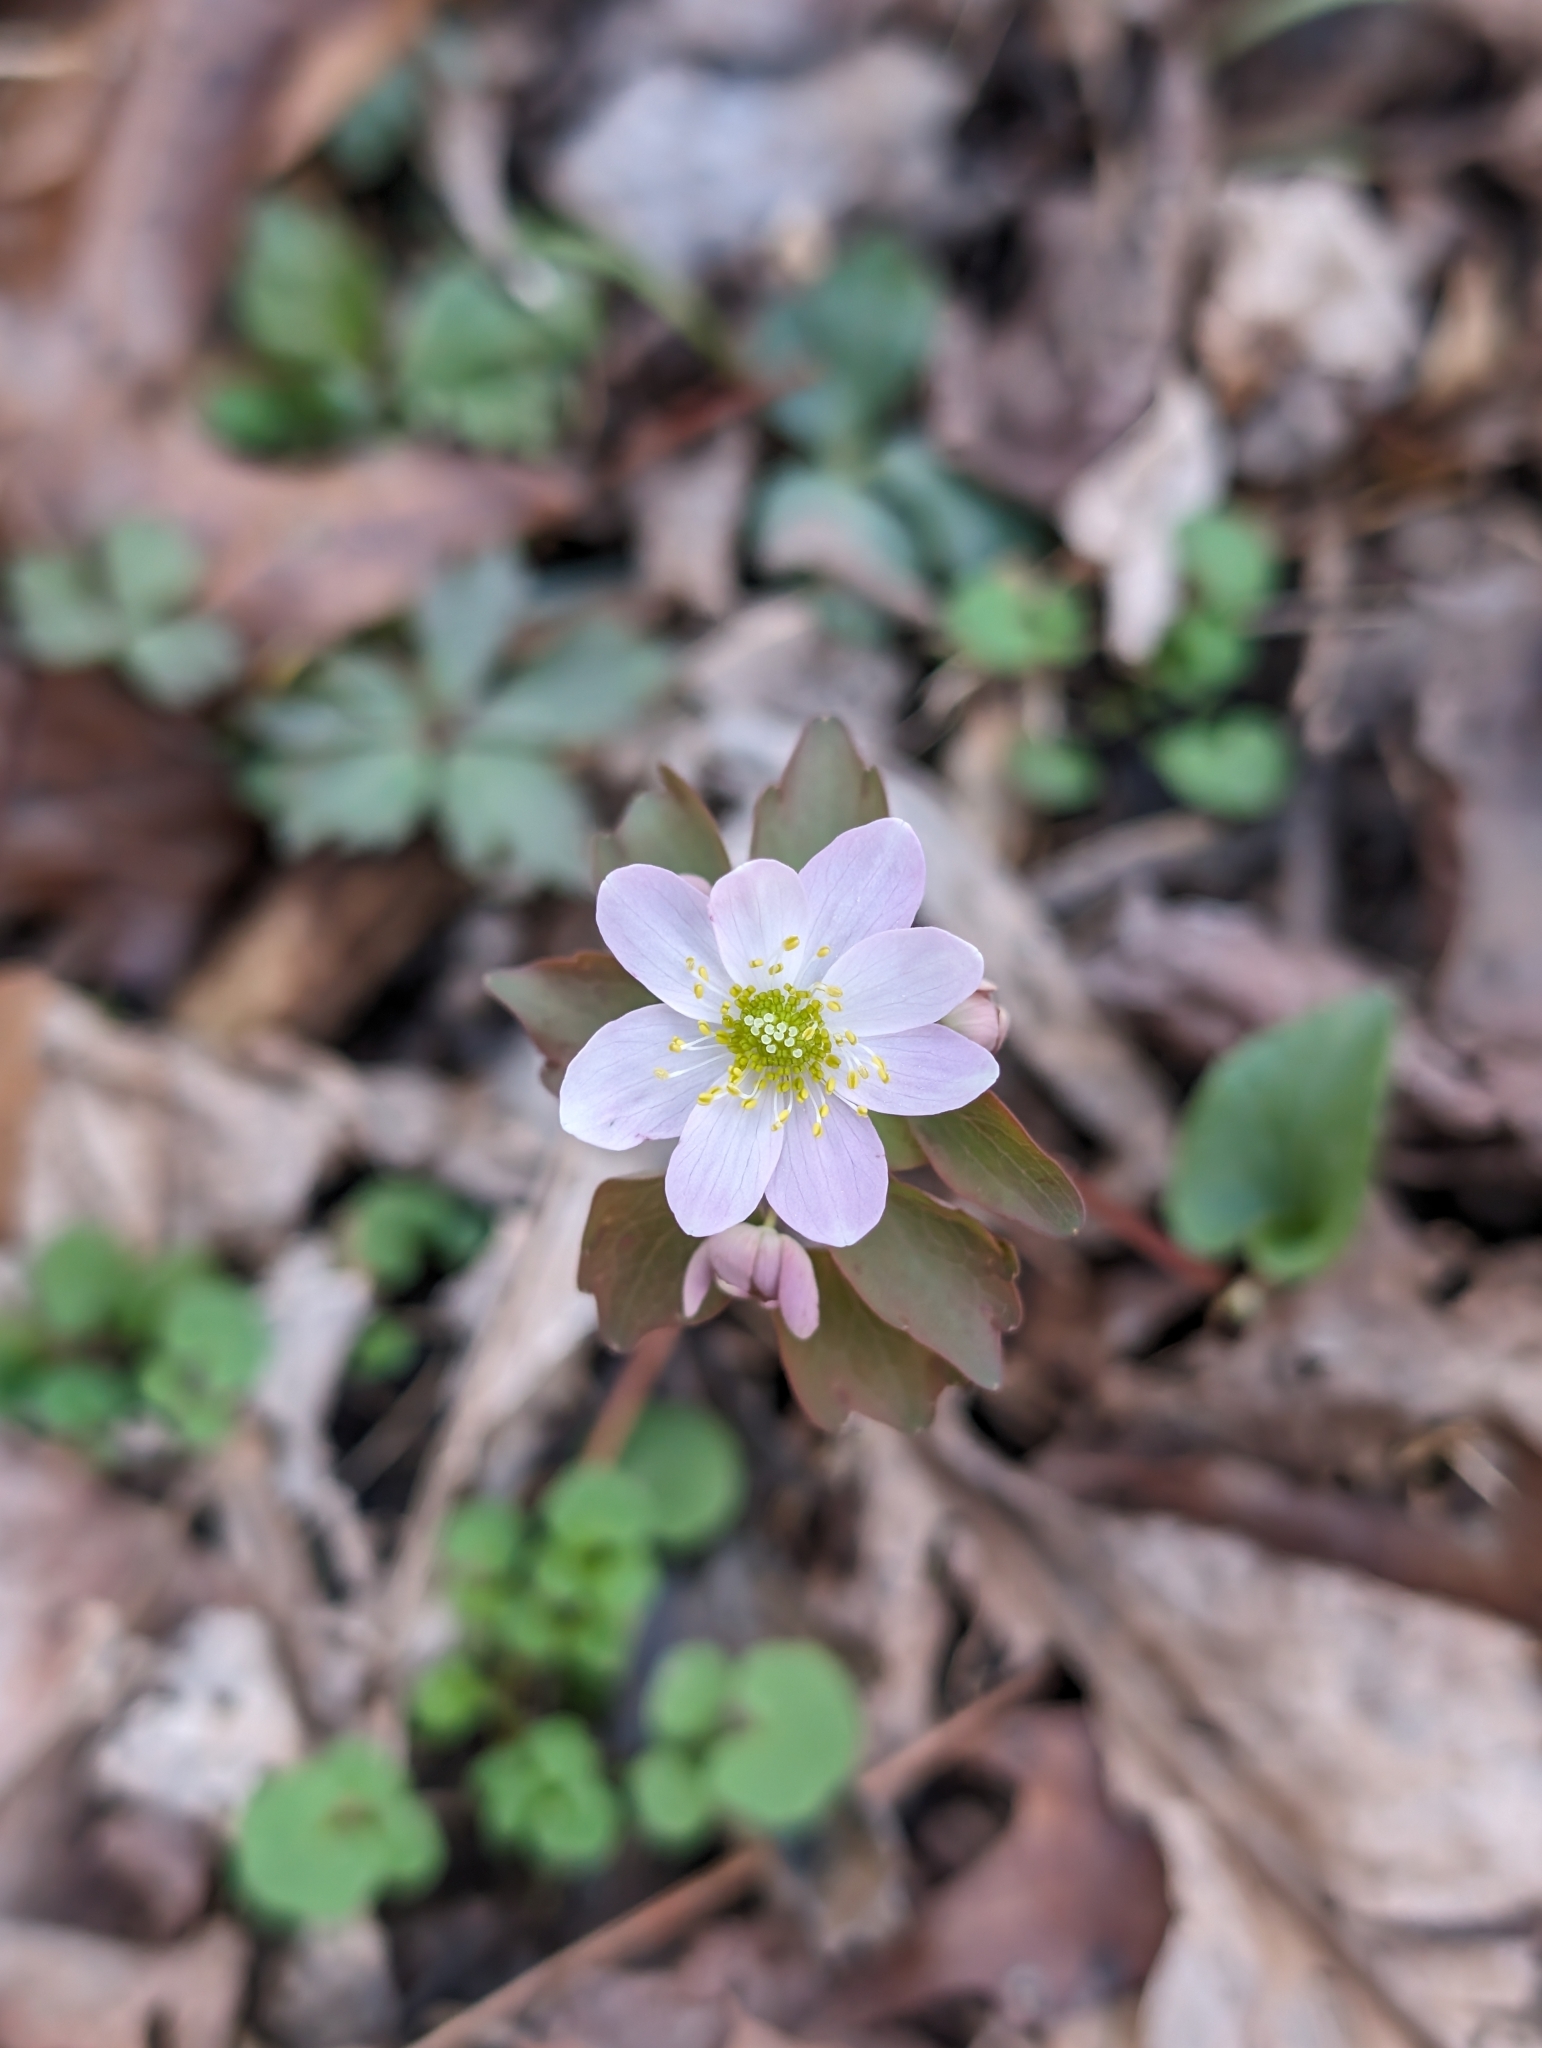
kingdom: Plantae
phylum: Tracheophyta
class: Magnoliopsida
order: Ranunculales
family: Ranunculaceae
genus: Thalictrum
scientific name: Thalictrum thalictroides
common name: Rue-anemone
